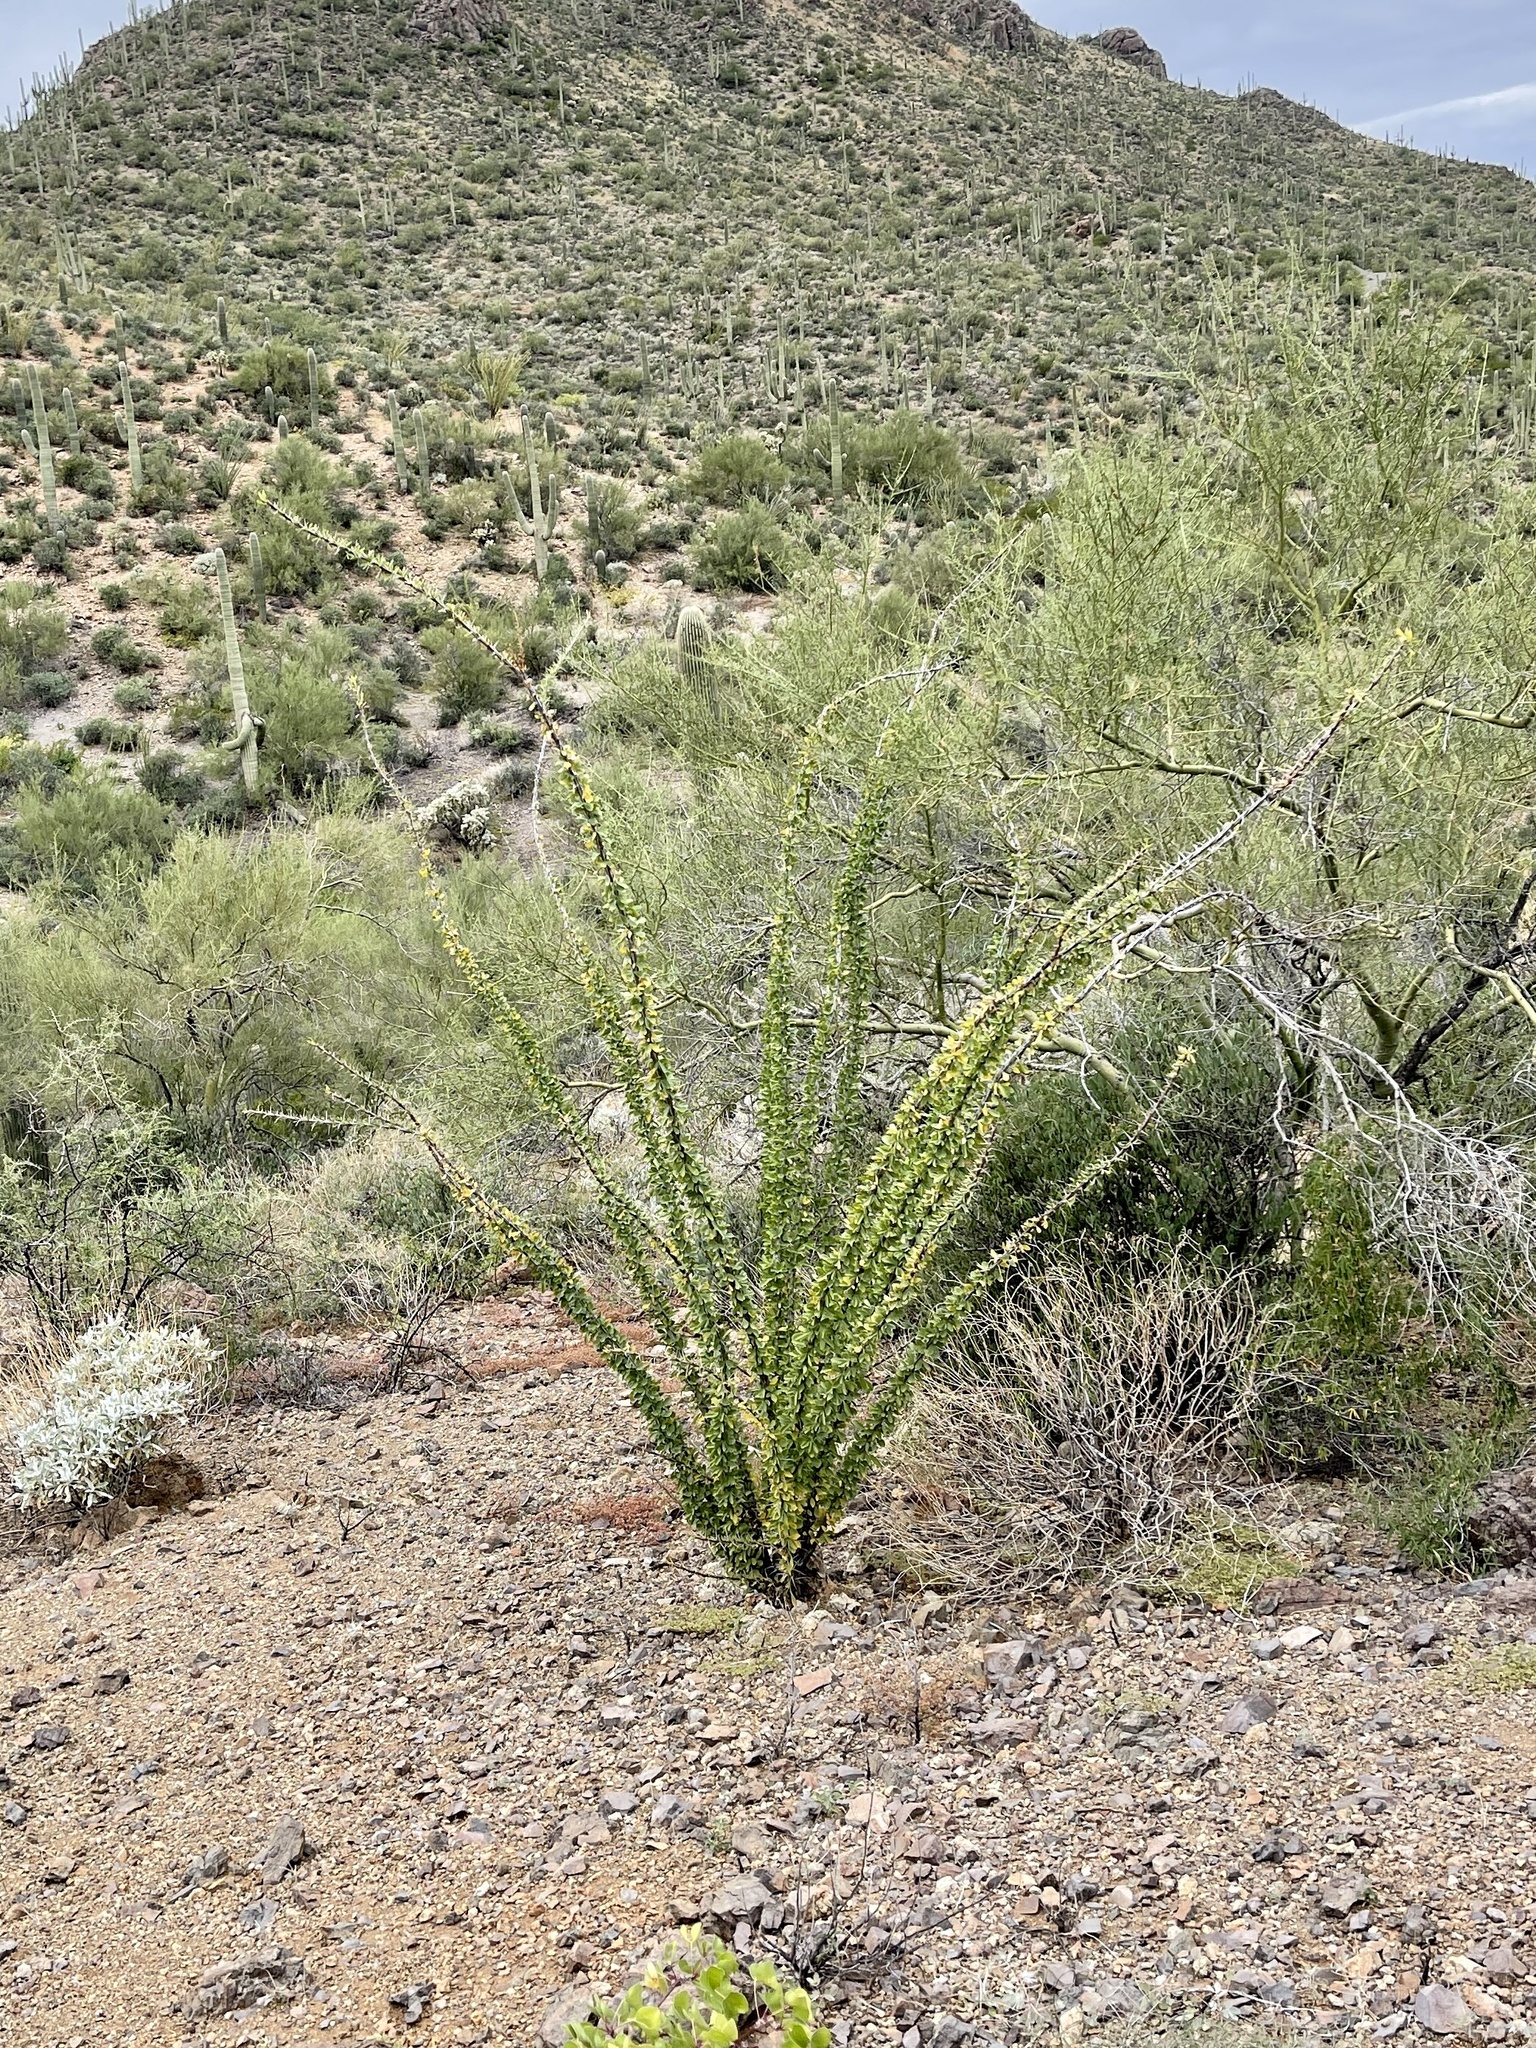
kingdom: Plantae
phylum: Tracheophyta
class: Magnoliopsida
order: Ericales
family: Fouquieriaceae
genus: Fouquieria
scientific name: Fouquieria splendens
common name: Vine-cactus
